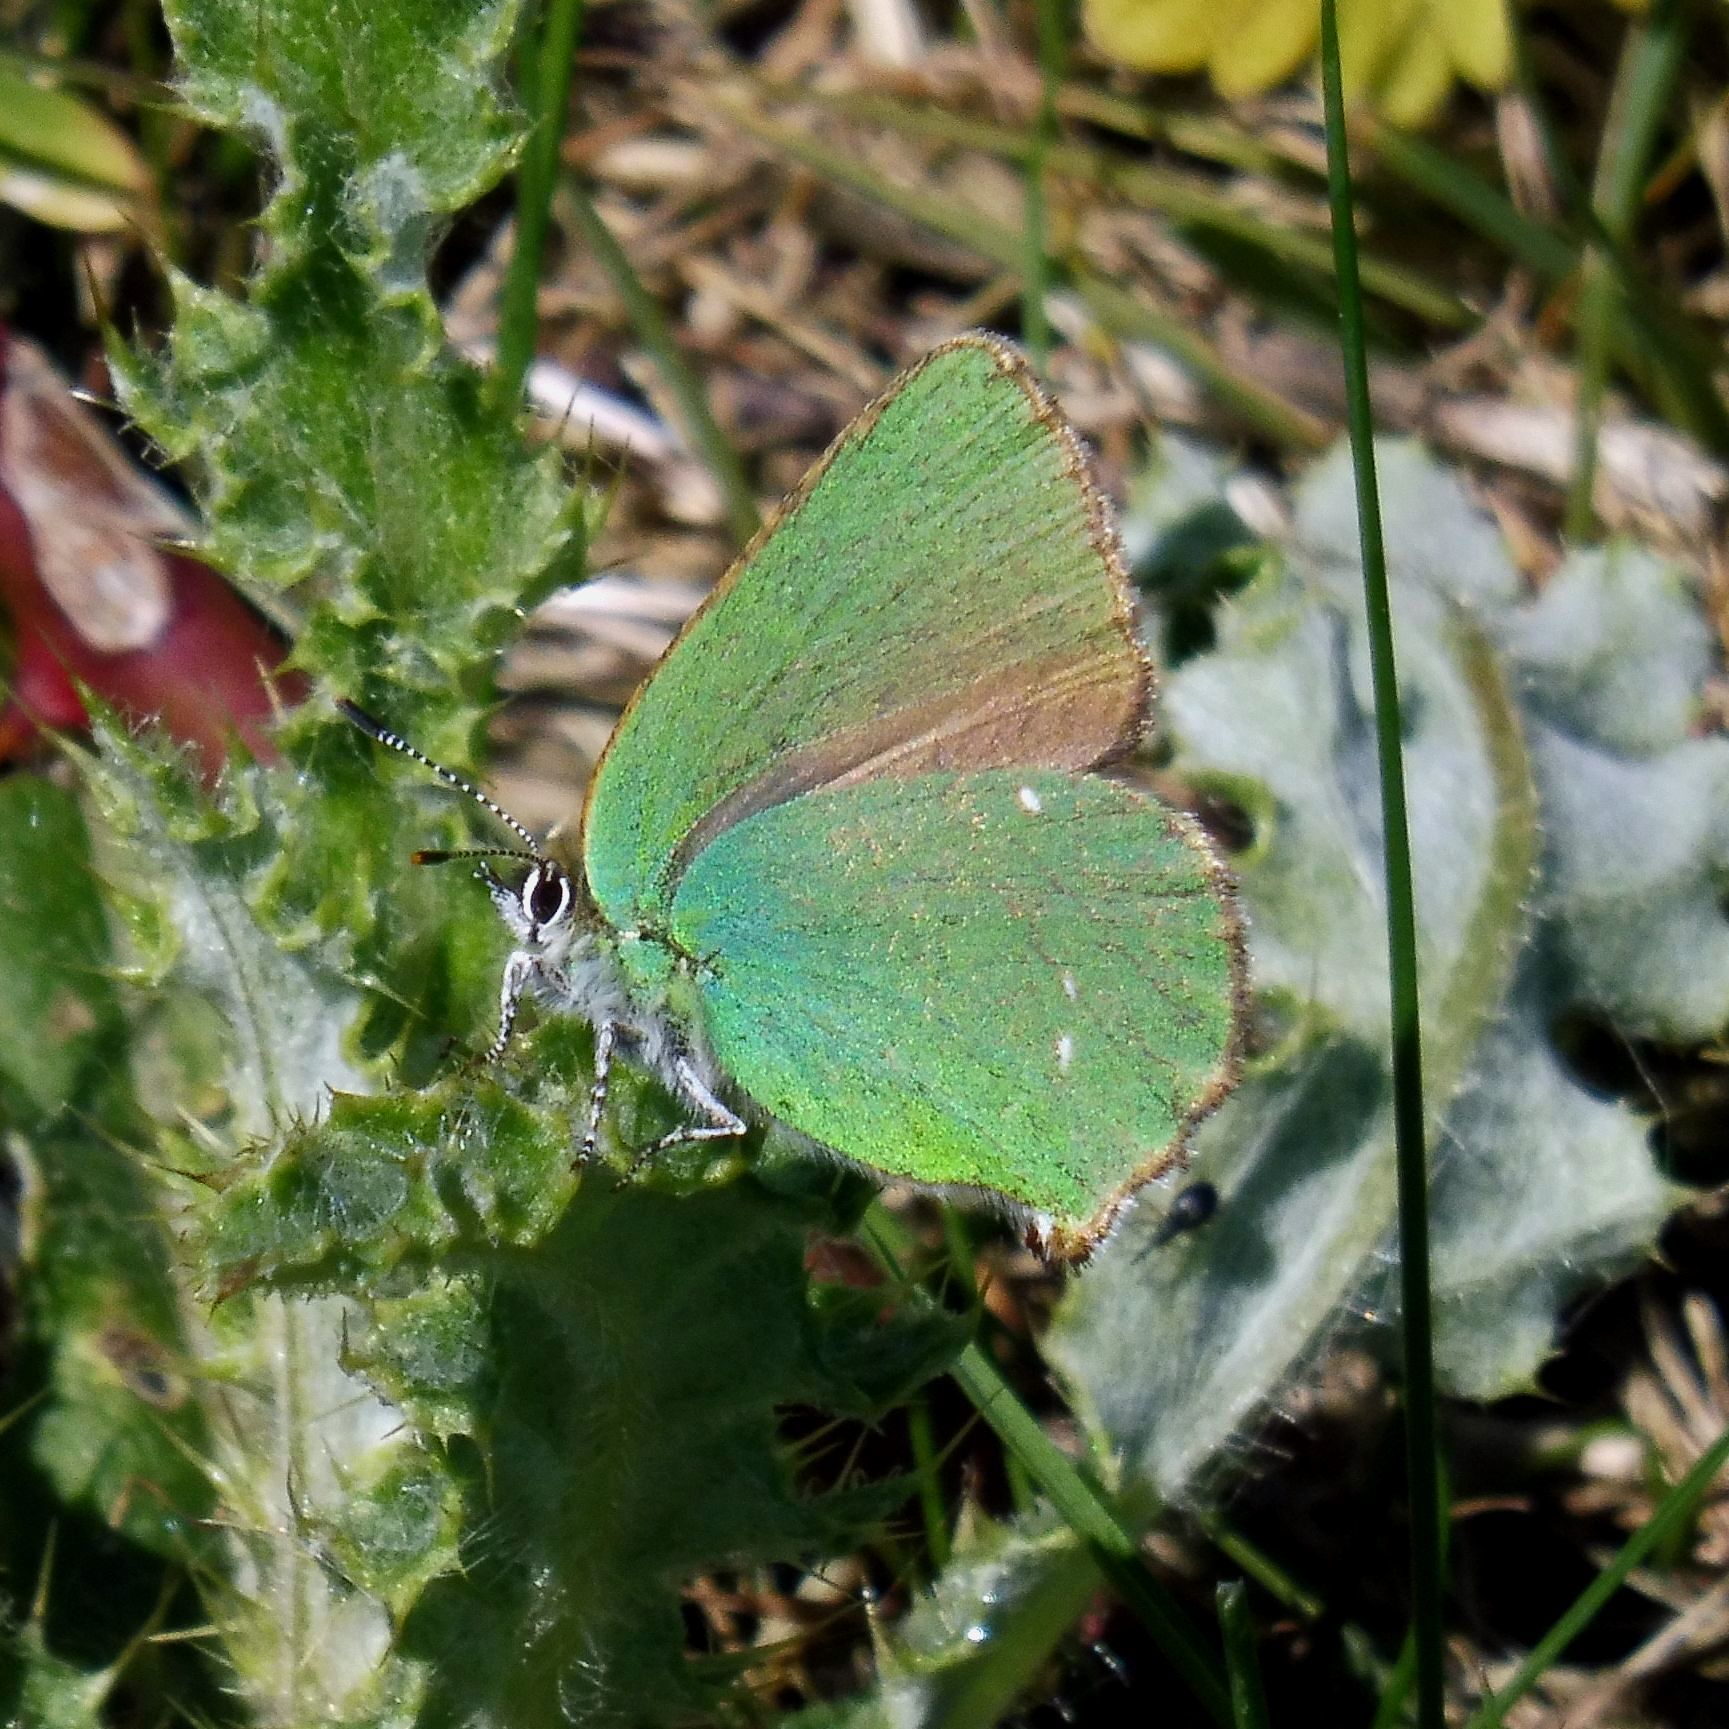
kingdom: Animalia
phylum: Arthropoda
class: Insecta
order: Lepidoptera
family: Lycaenidae
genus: Callophrys
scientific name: Callophrys rubi
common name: Green hairstreak
